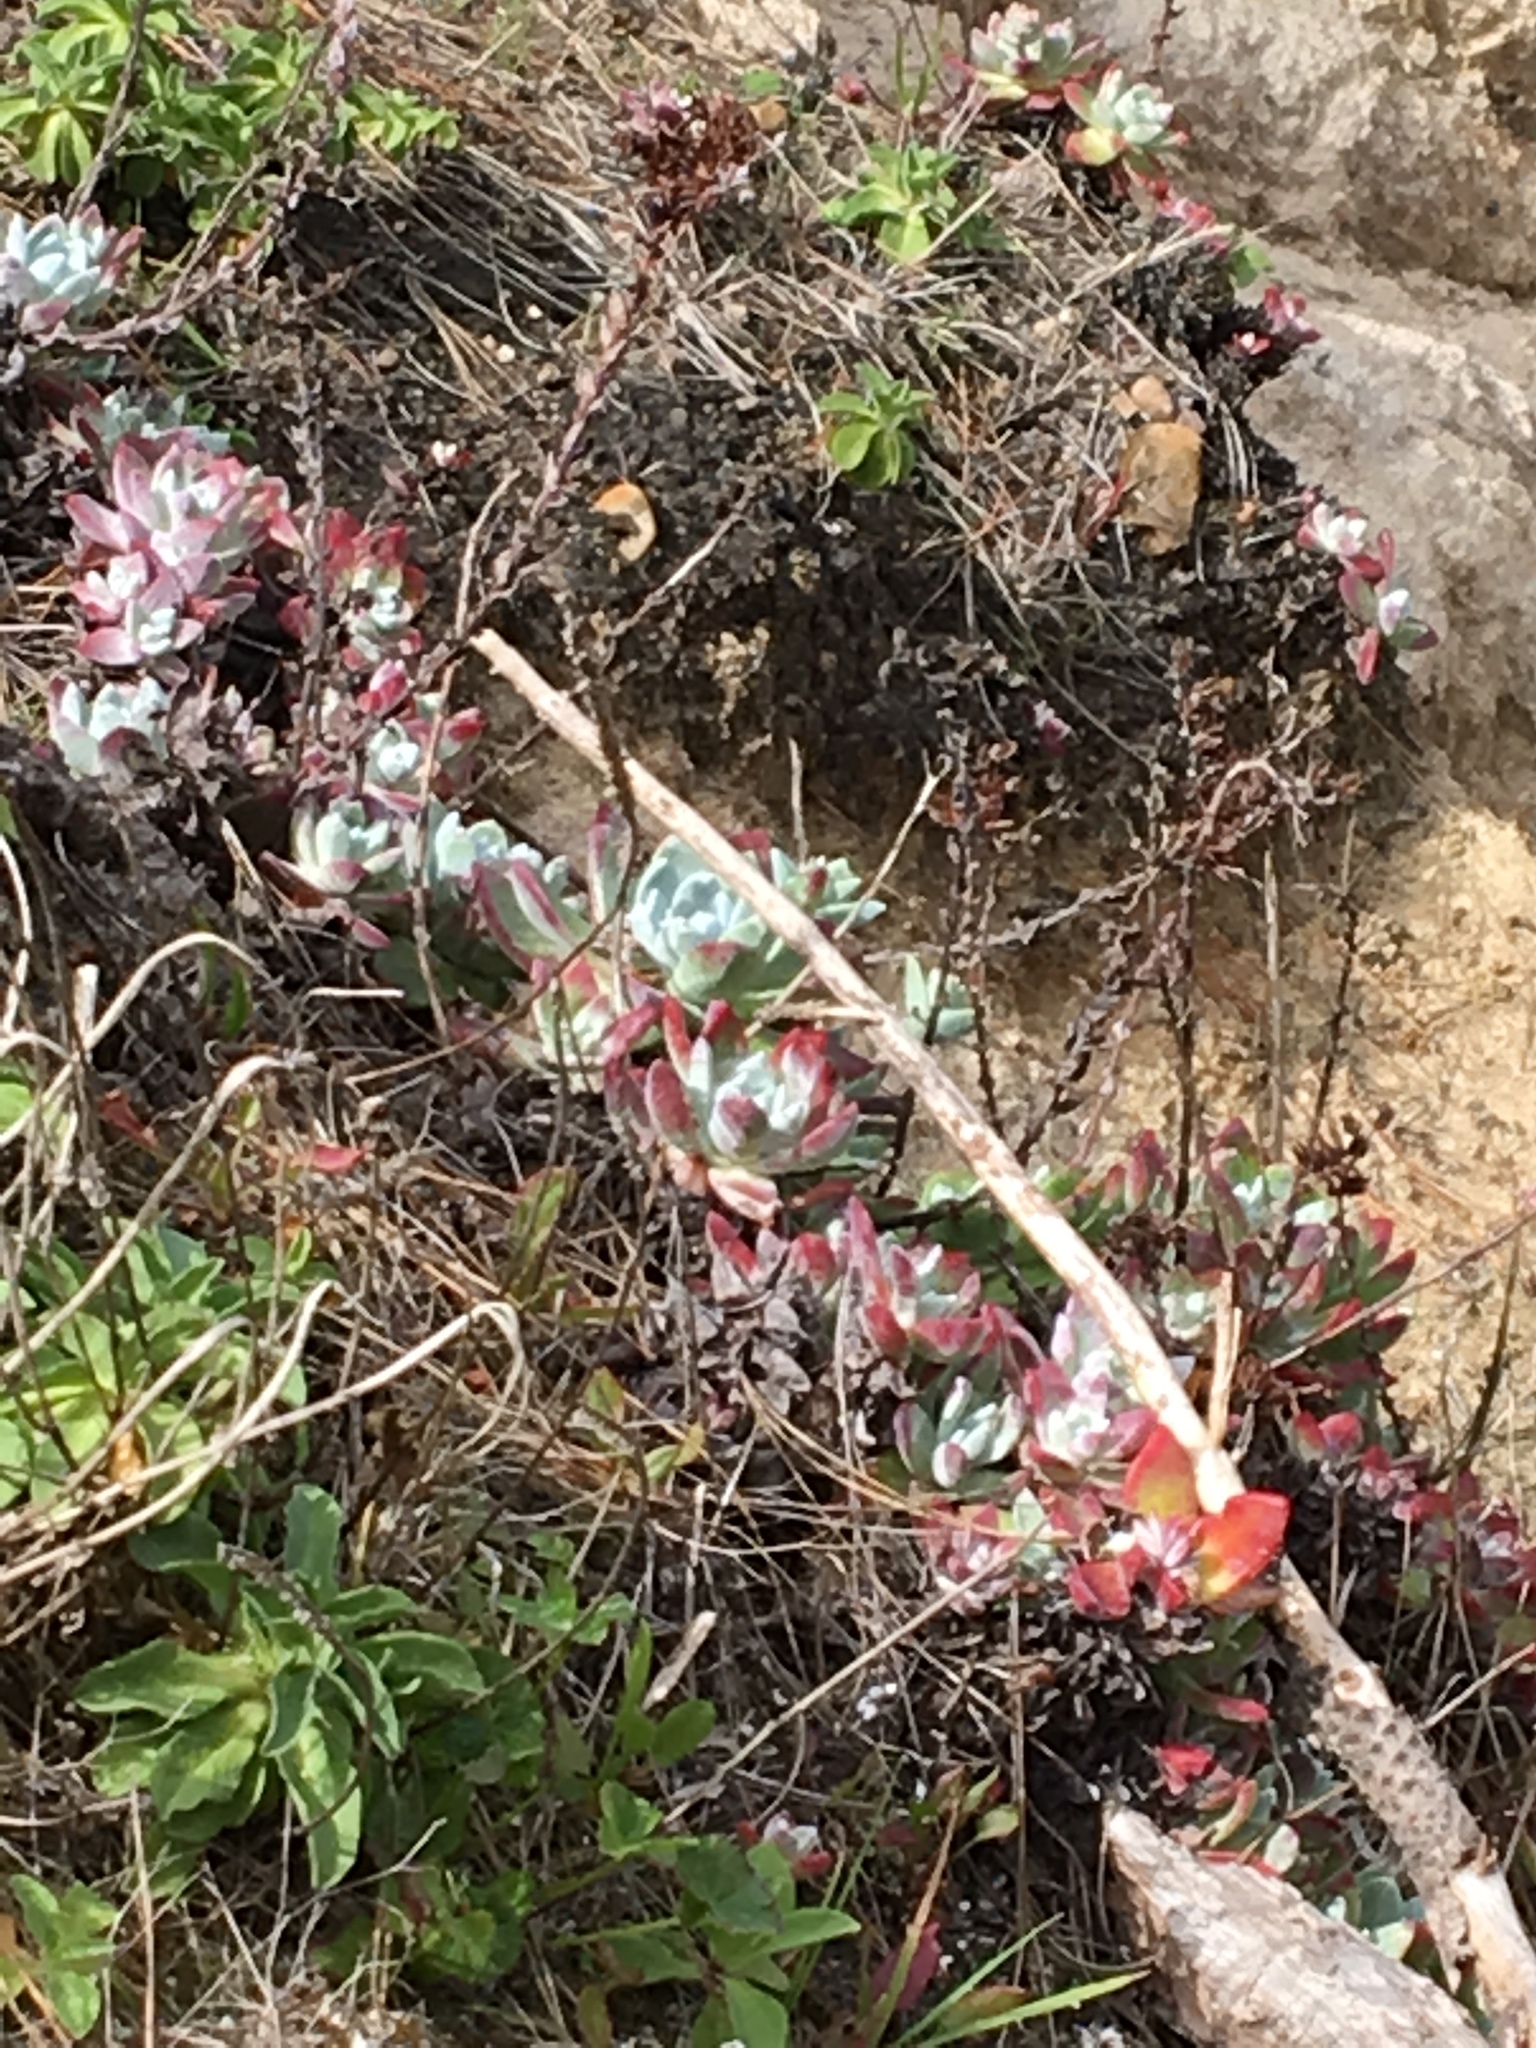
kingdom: Plantae
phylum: Tracheophyta
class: Magnoliopsida
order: Saxifragales
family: Crassulaceae
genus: Dudleya
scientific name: Dudleya caespitosa
